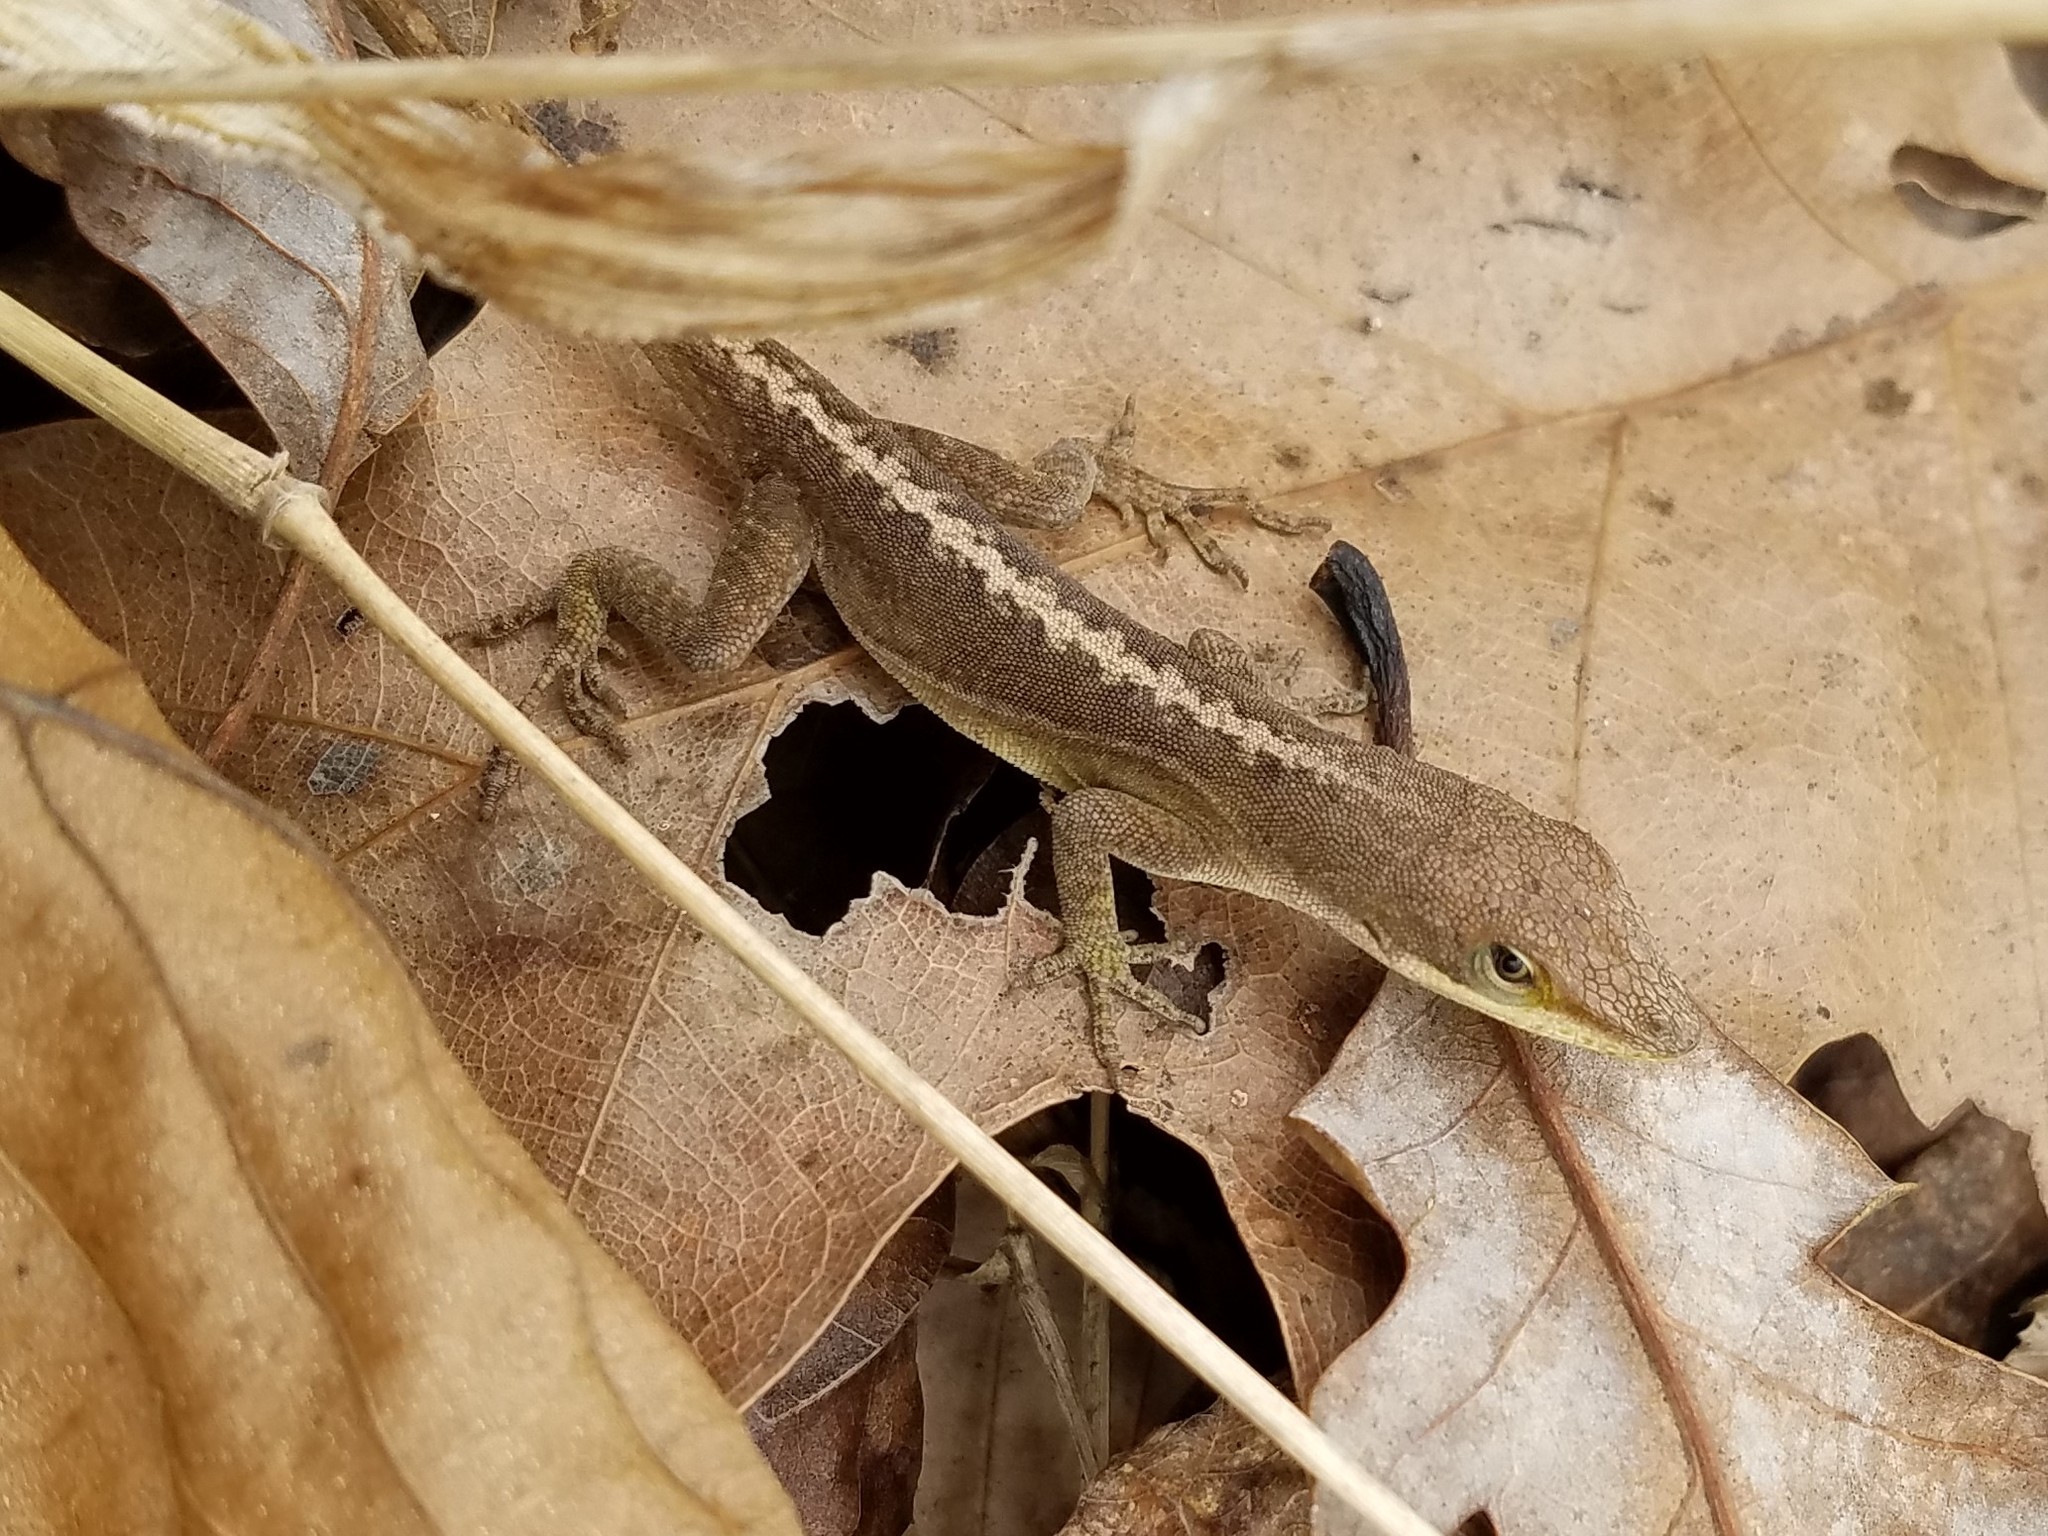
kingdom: Animalia
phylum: Chordata
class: Squamata
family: Dactyloidae
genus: Anolis
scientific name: Anolis carolinensis
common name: Green anole
